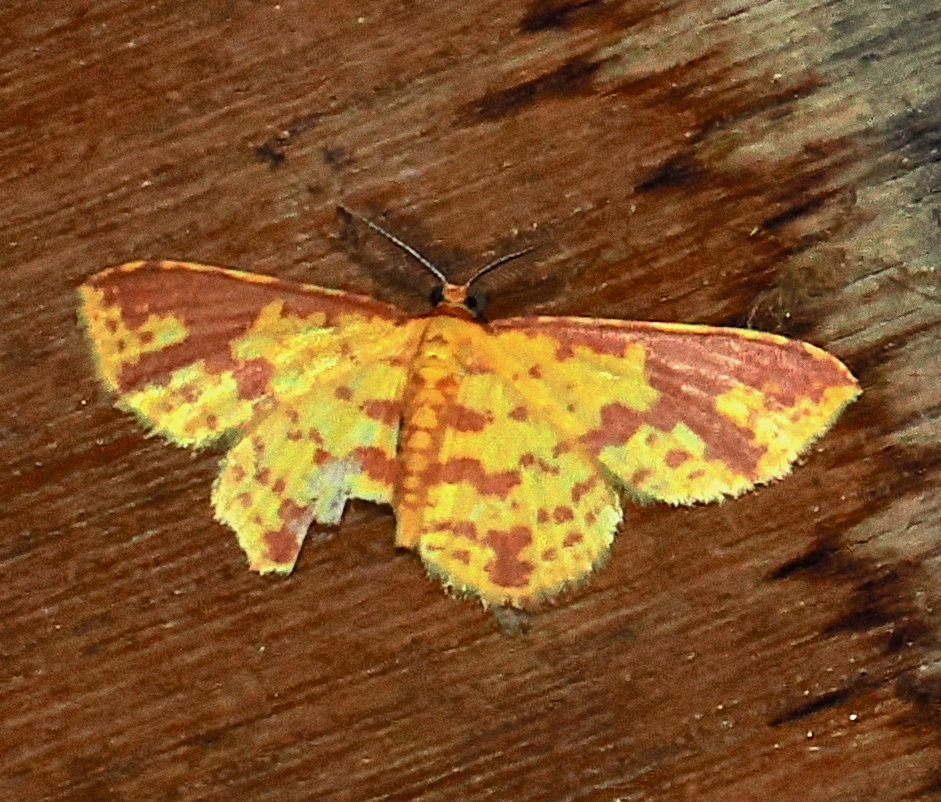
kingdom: Animalia
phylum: Arthropoda
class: Insecta
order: Lepidoptera
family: Geometridae
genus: Eois
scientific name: Eois heliadaria
